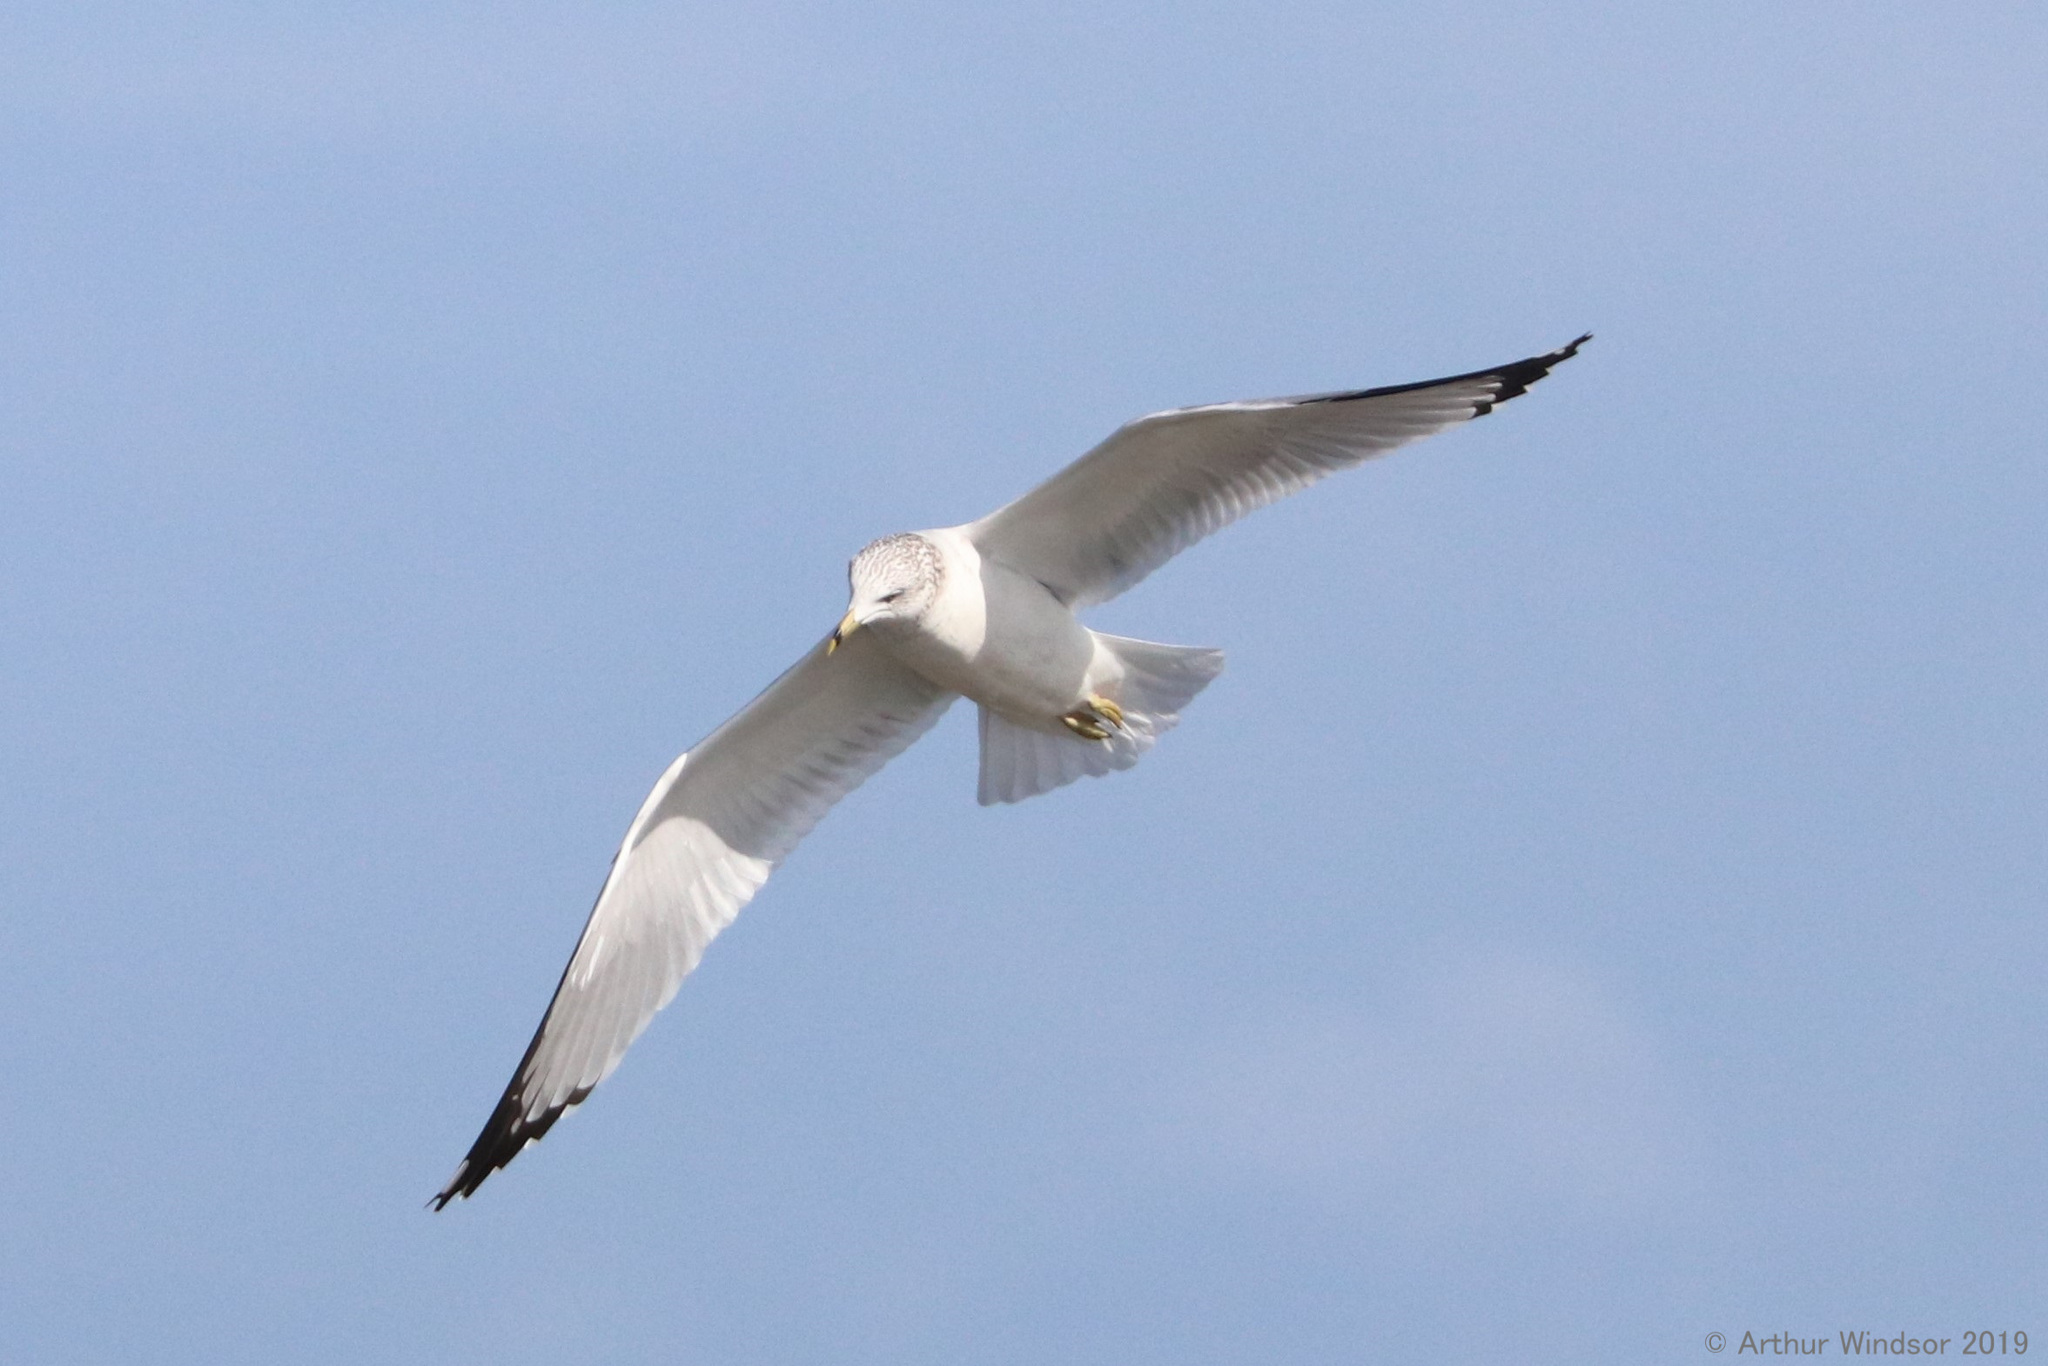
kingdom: Animalia
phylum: Chordata
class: Aves
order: Charadriiformes
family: Laridae
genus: Larus
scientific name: Larus delawarensis
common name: Ring-billed gull
